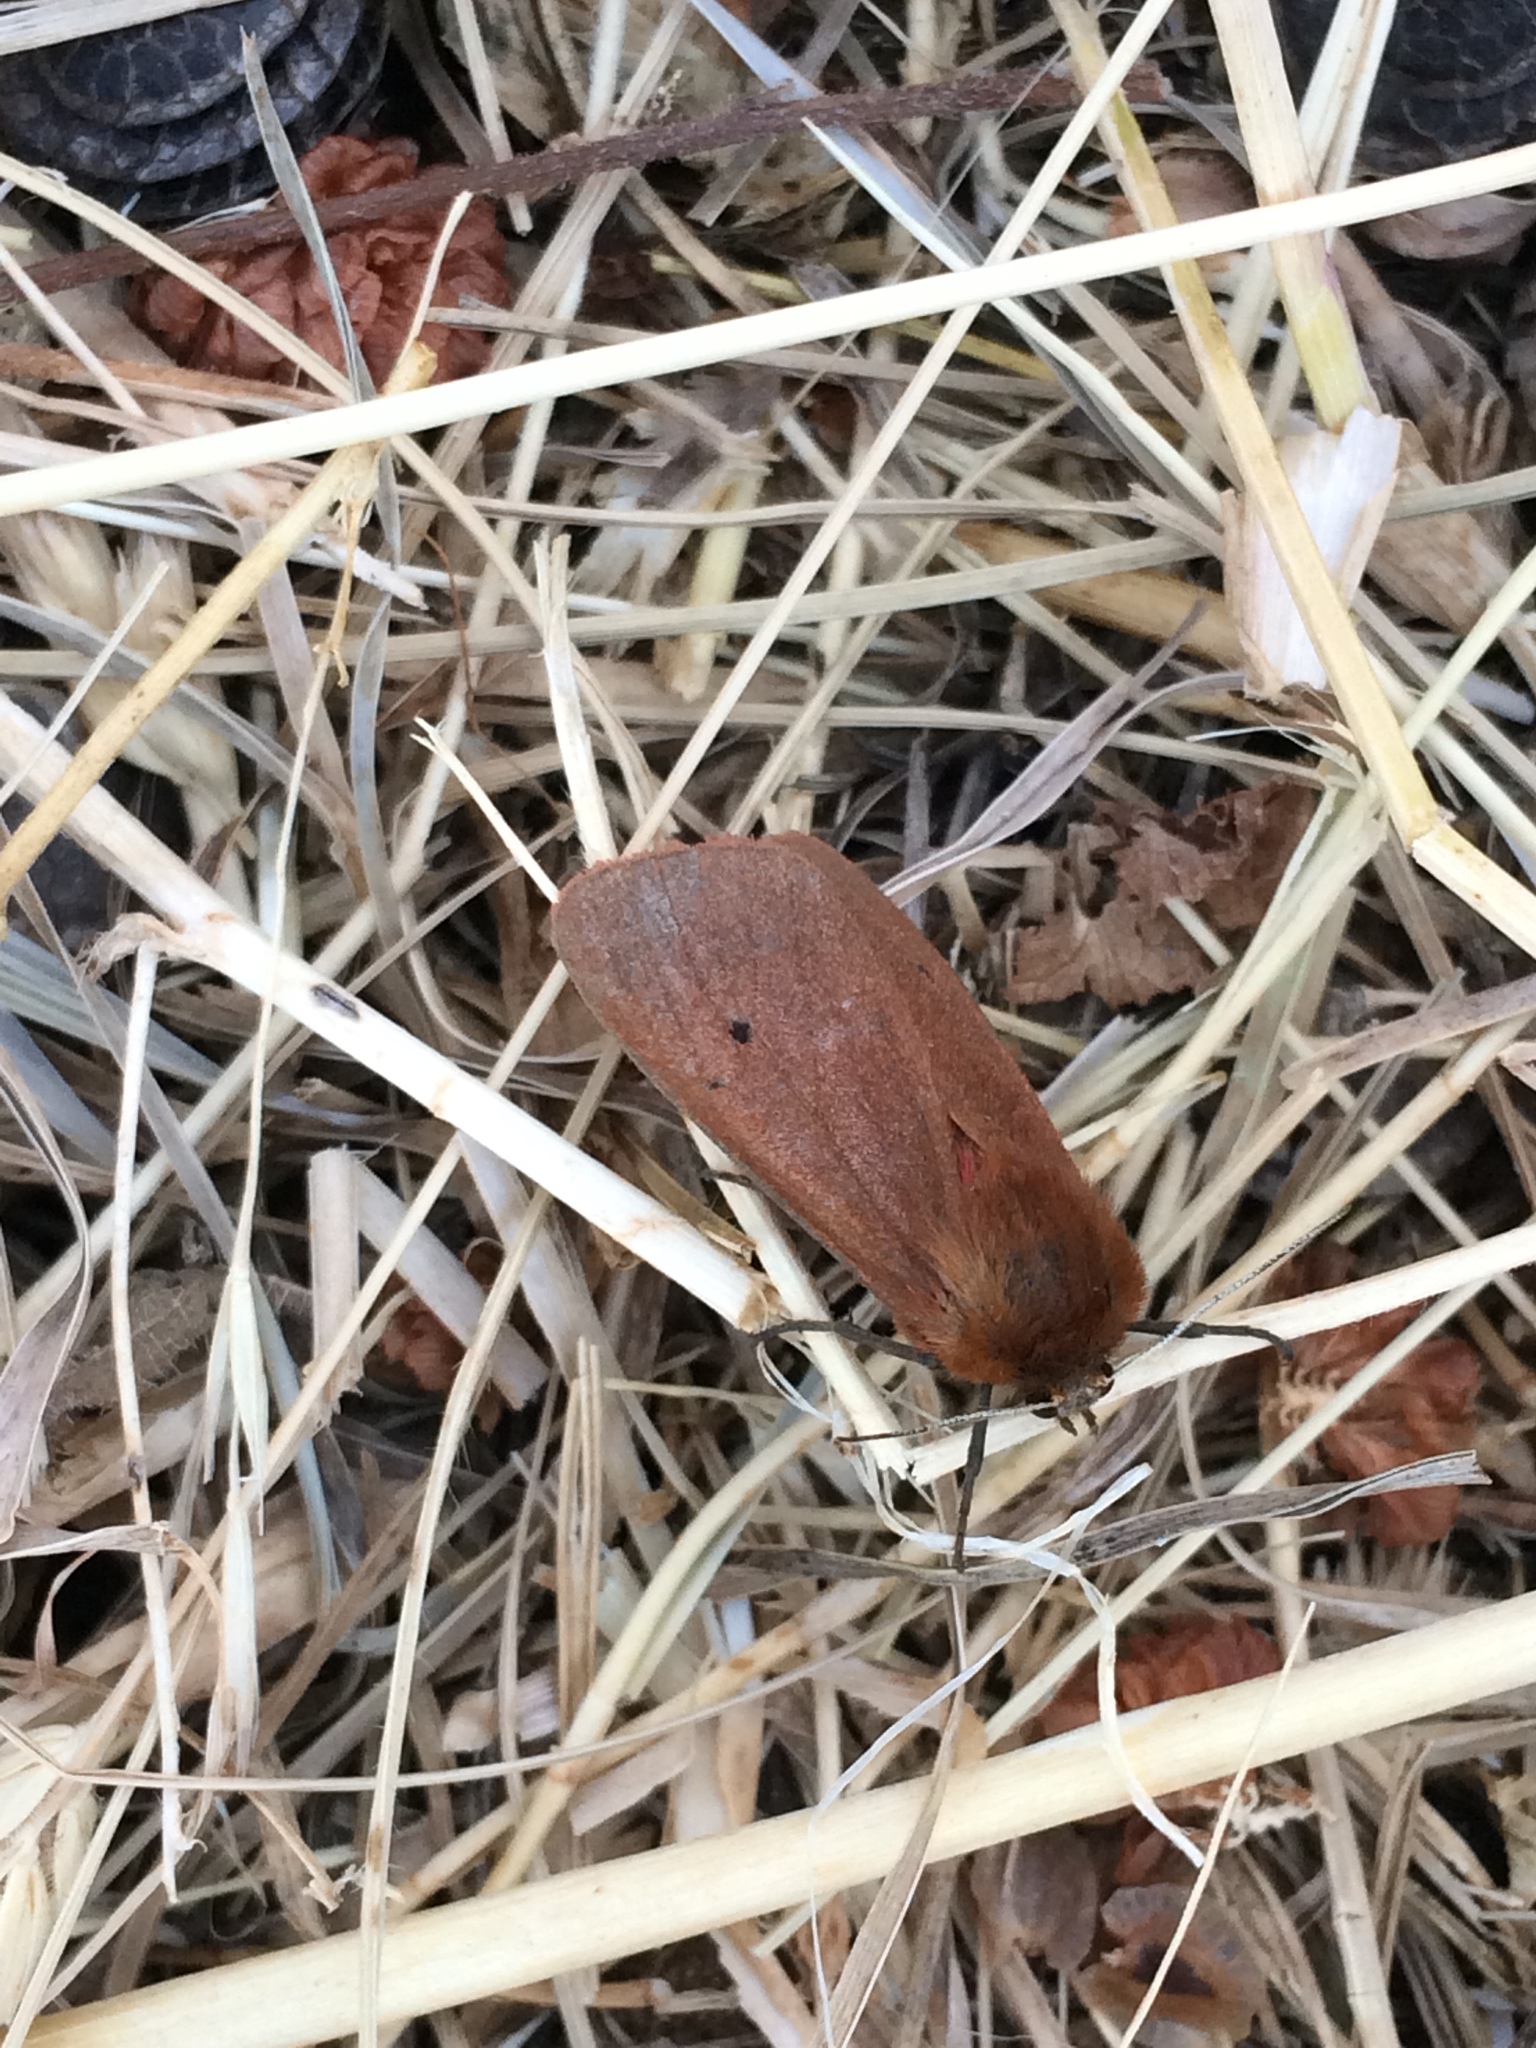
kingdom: Animalia
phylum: Arthropoda
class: Insecta
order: Lepidoptera
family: Erebidae
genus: Phragmatobia
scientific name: Phragmatobia fuliginosa
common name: Ruby tiger
